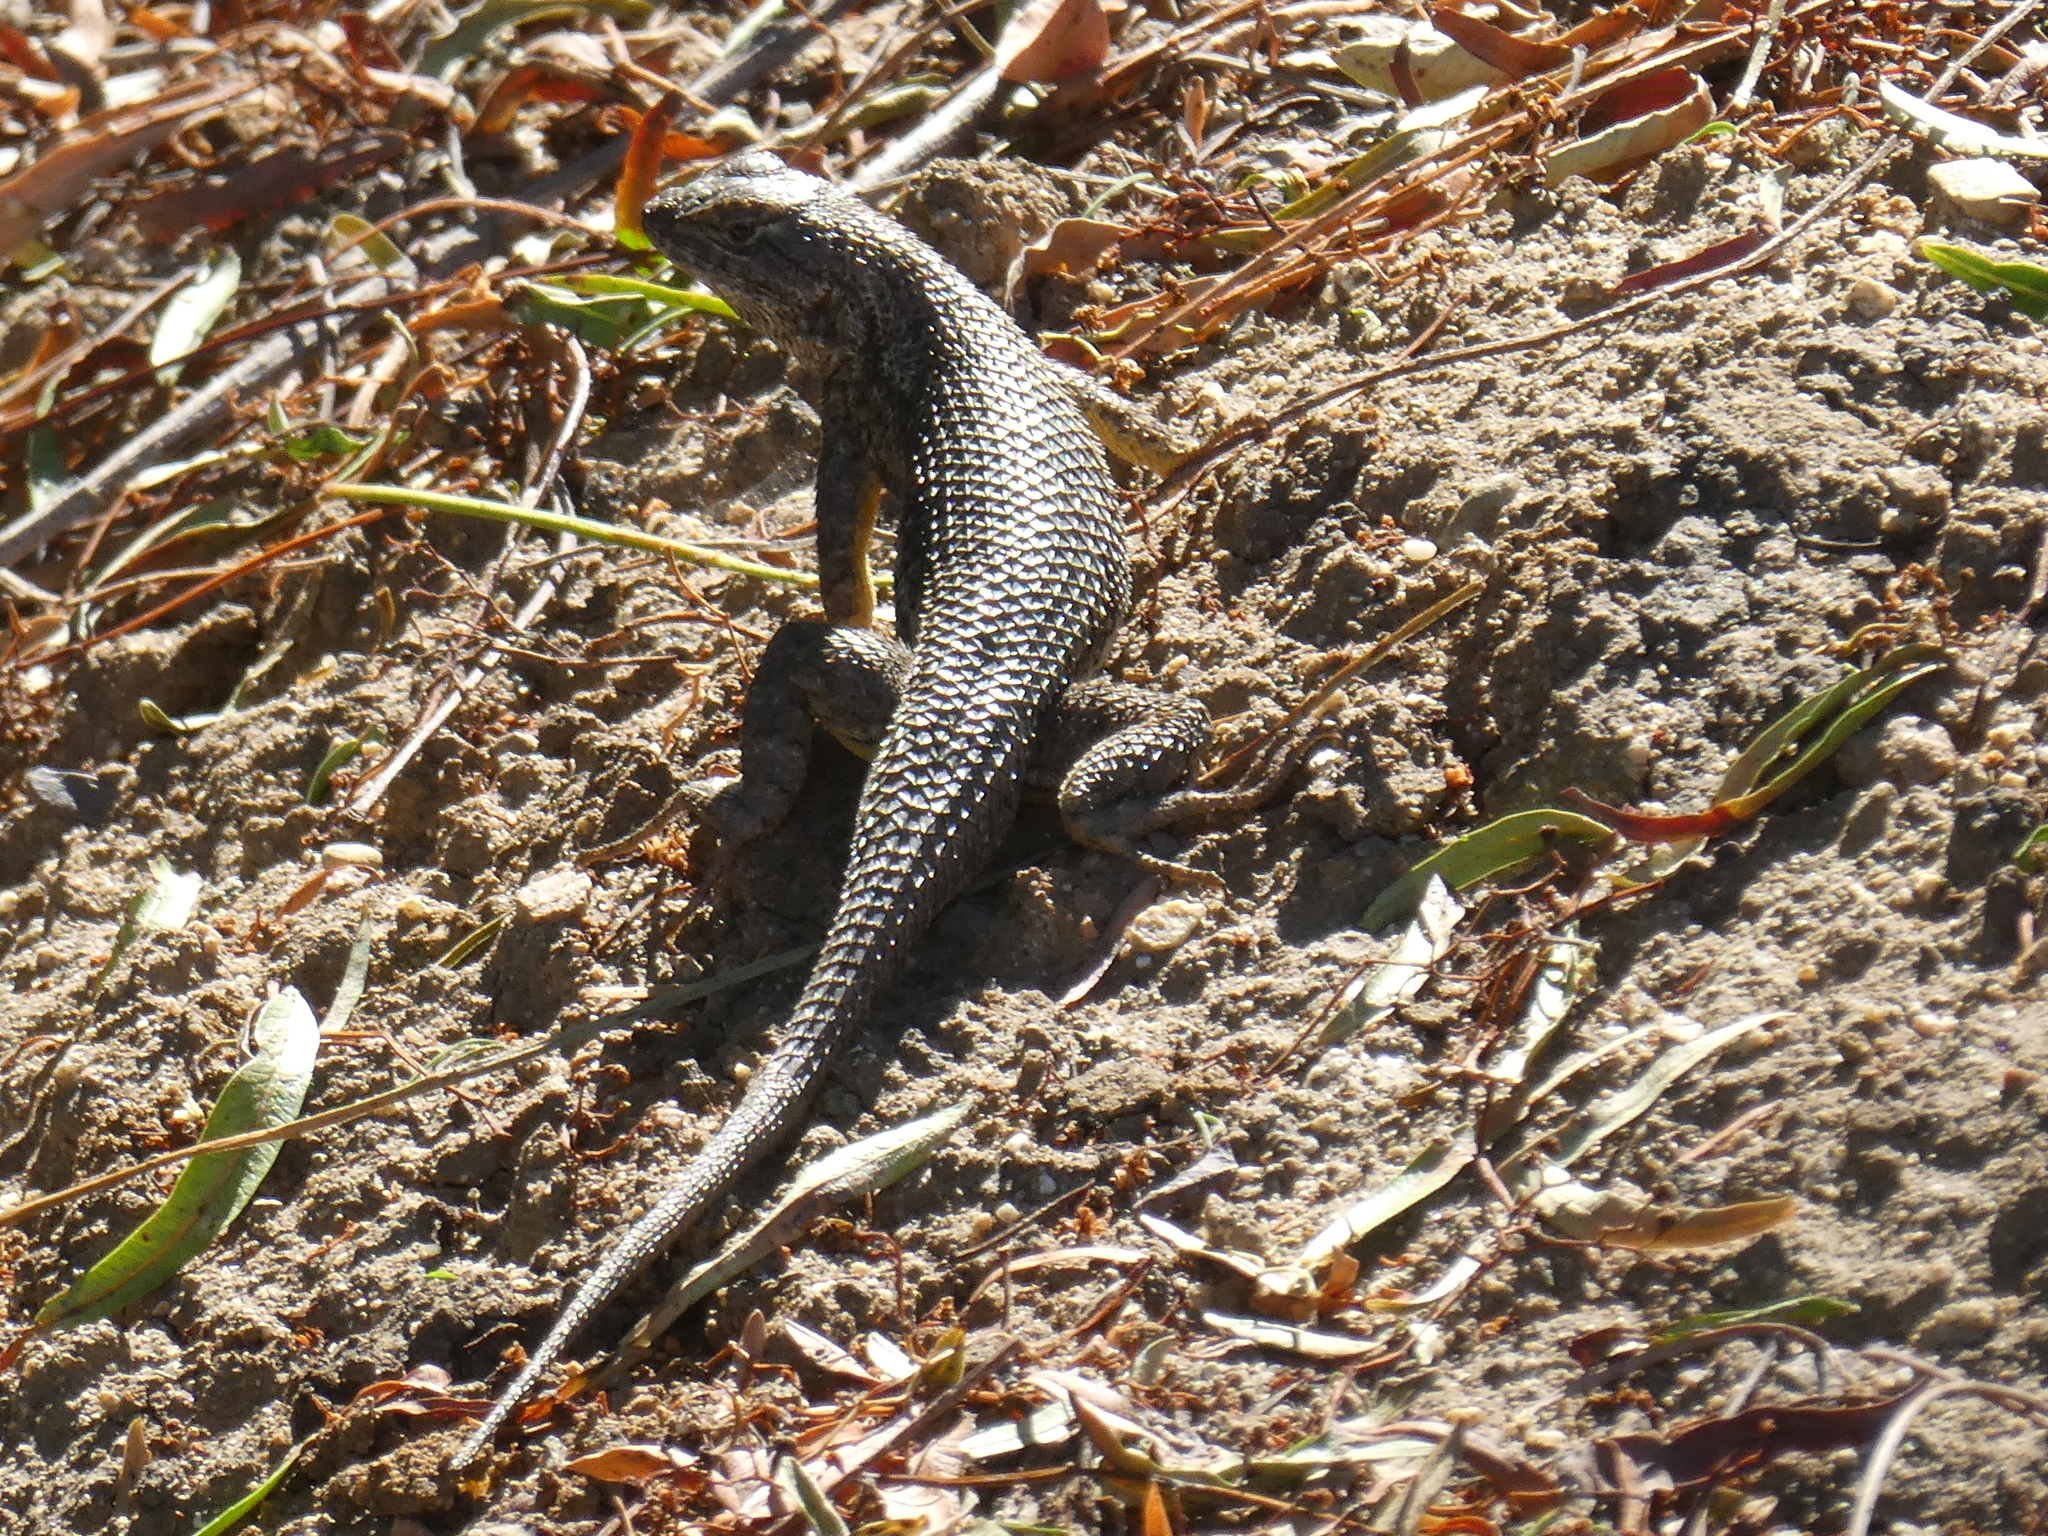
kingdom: Animalia
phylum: Chordata
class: Squamata
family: Phrynosomatidae
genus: Sceloporus
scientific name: Sceloporus occidentalis
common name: Western fence lizard
